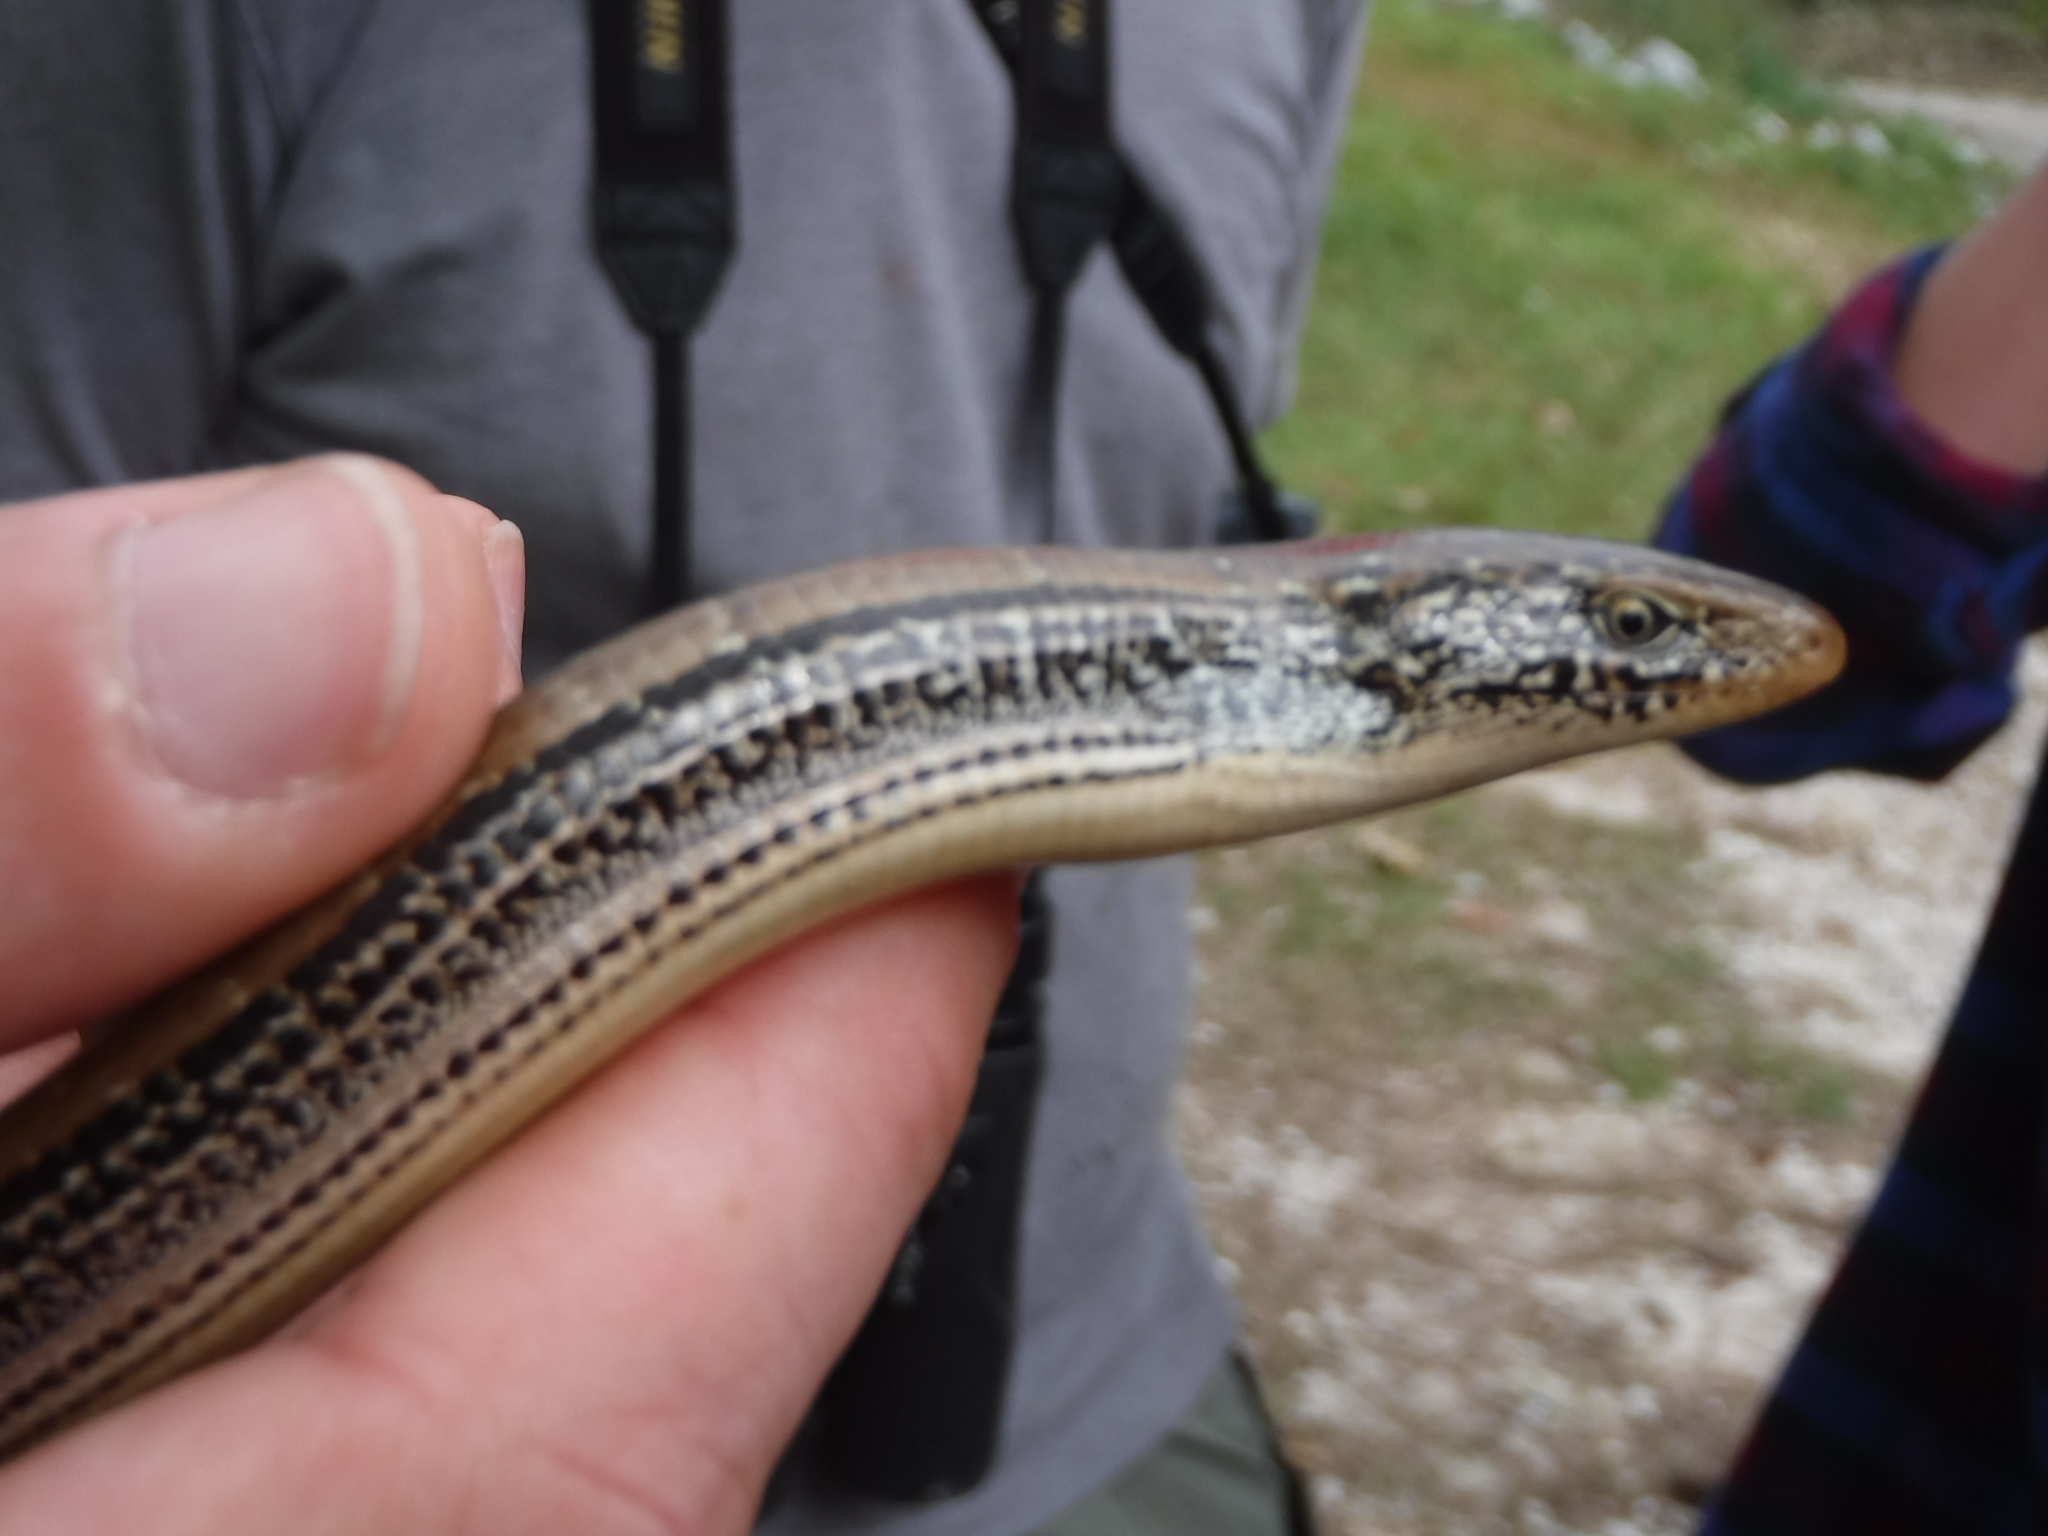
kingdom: Animalia
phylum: Chordata
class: Squamata
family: Anguidae
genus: Ophisaurus
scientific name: Ophisaurus attenuatus
